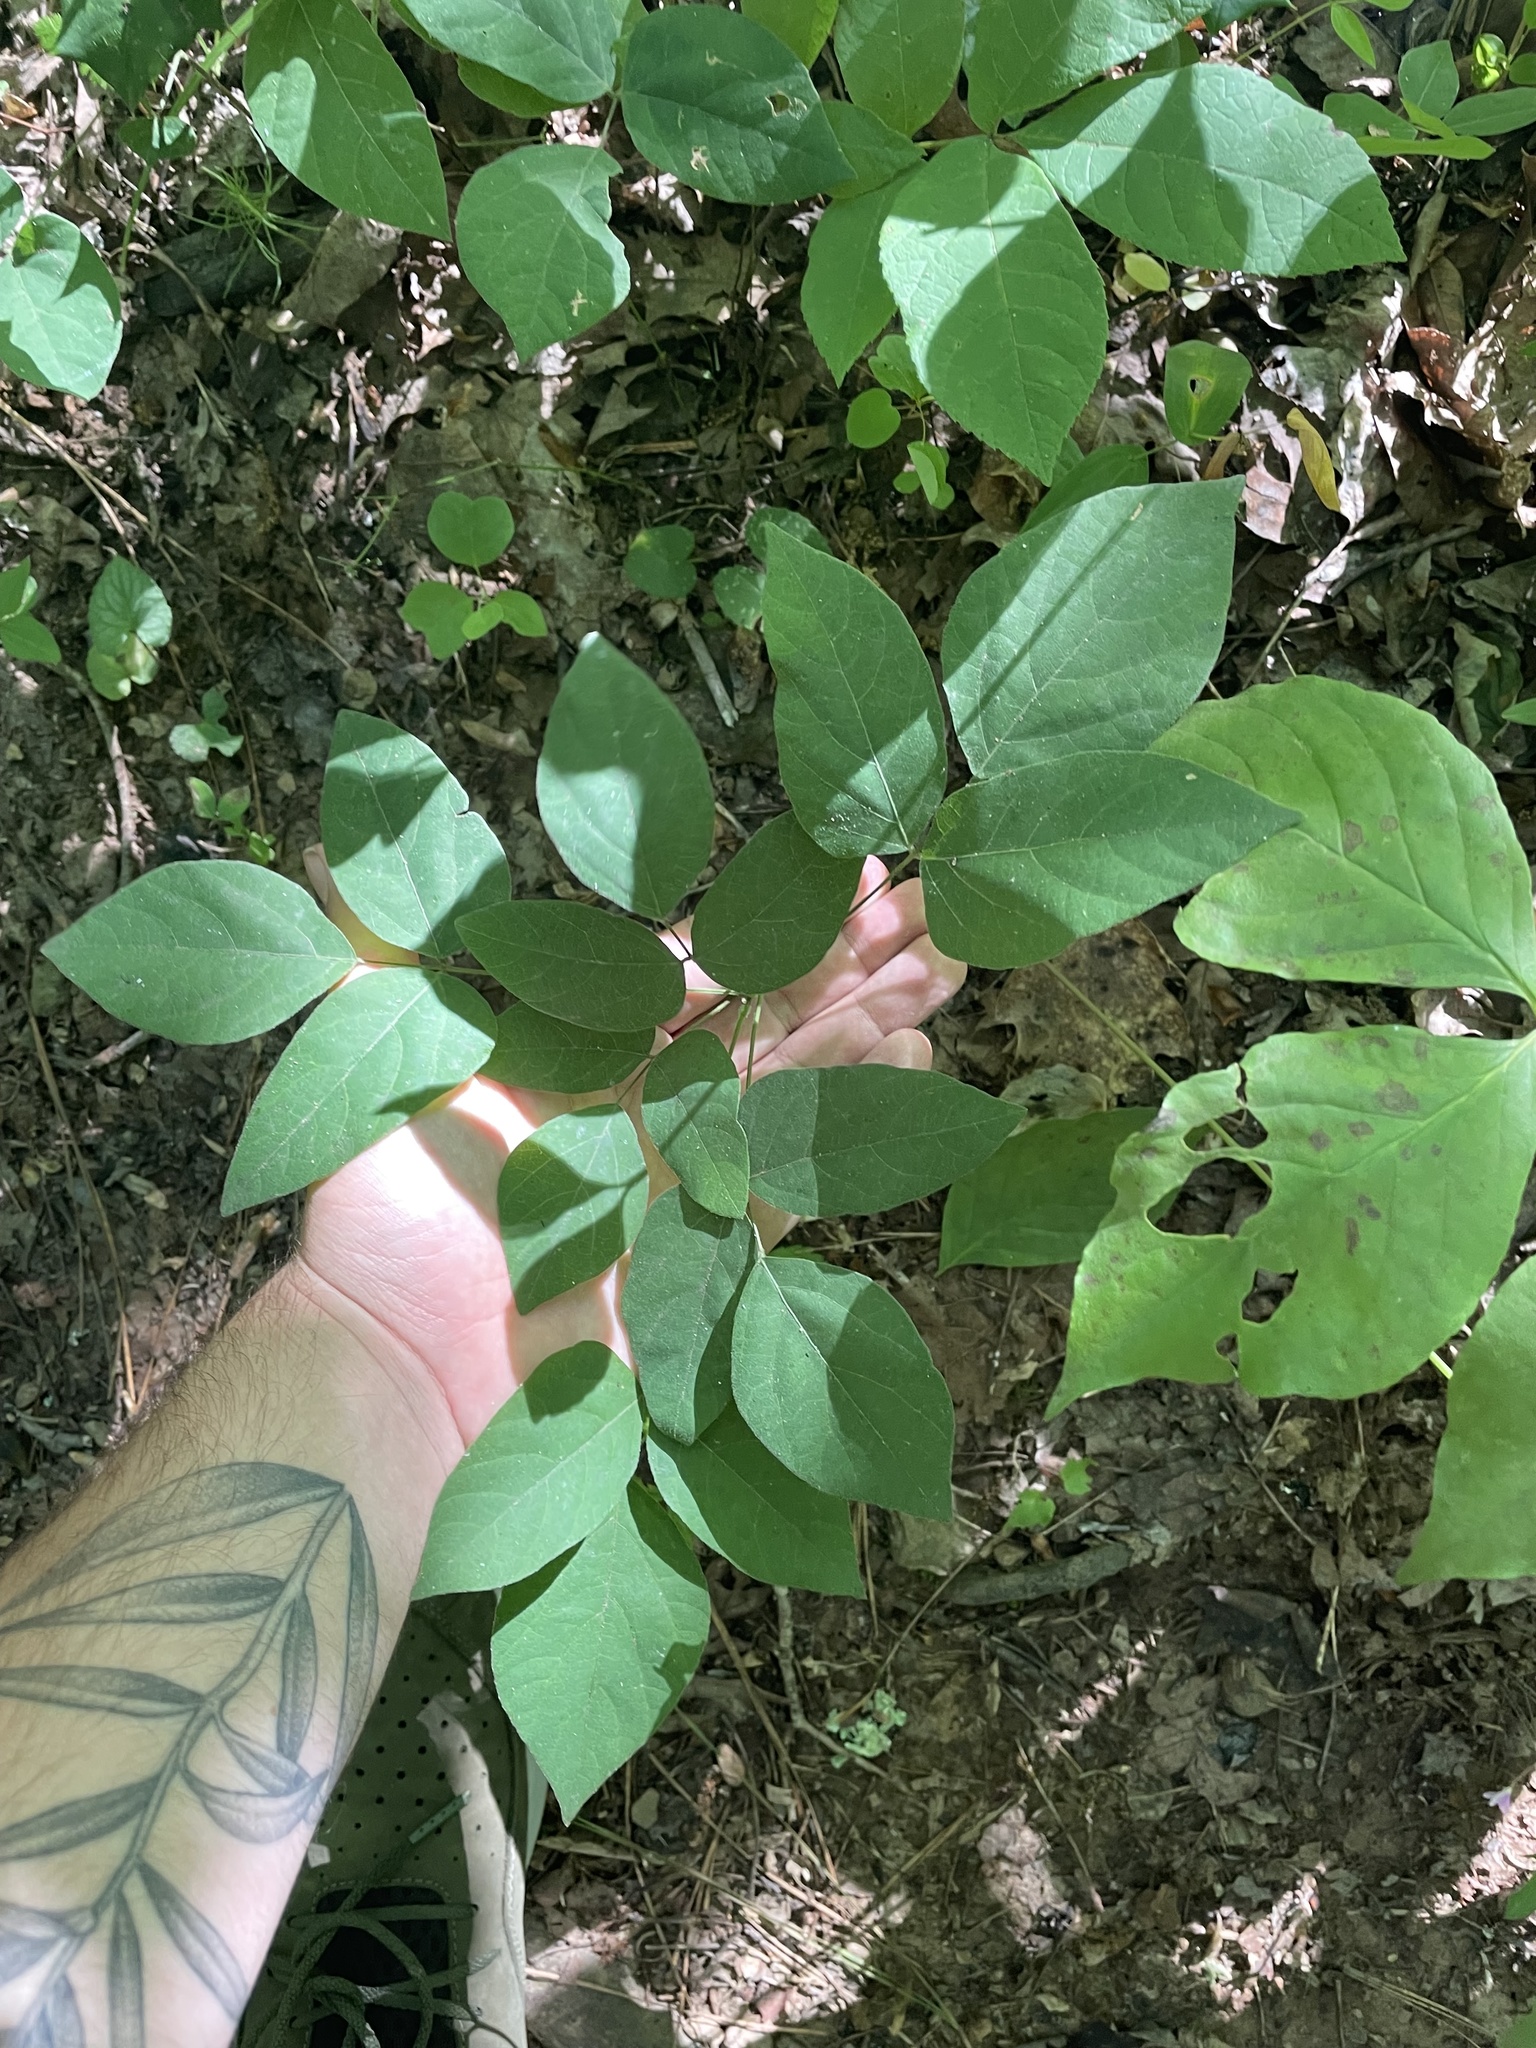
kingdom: Plantae
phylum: Tracheophyta
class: Magnoliopsida
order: Fabales
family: Fabaceae
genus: Hylodesmum
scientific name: Hylodesmum nudiflorum
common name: Bare-stemmed tick-trefoil
